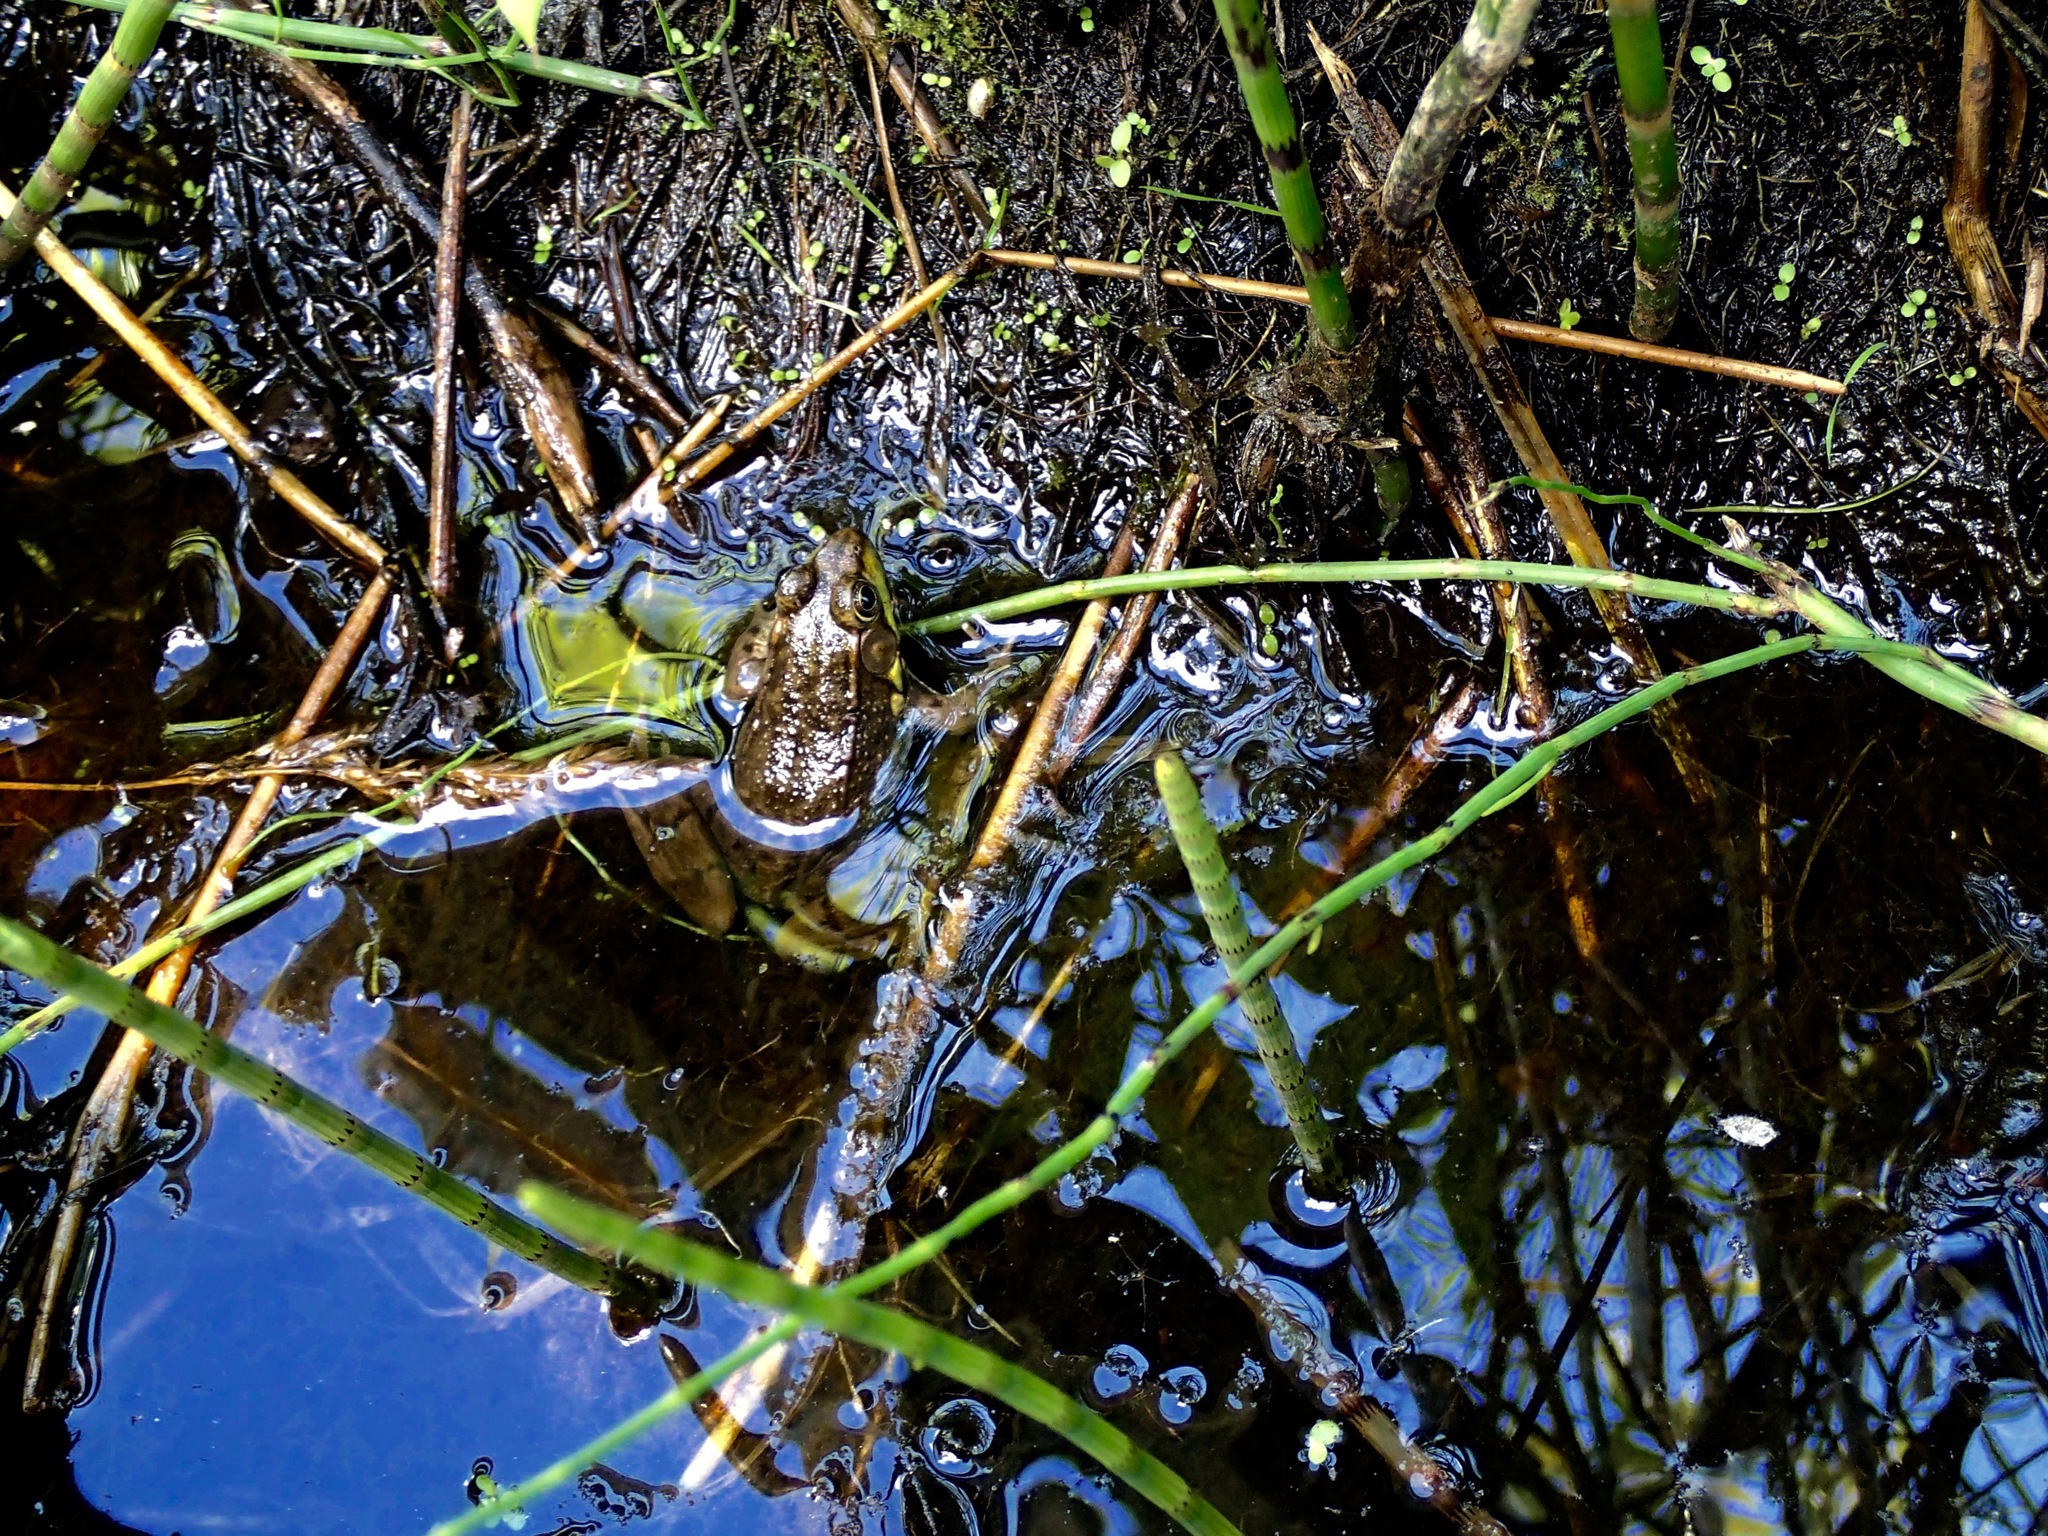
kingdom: Animalia
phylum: Chordata
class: Amphibia
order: Anura
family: Ranidae
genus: Lithobates
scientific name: Lithobates clamitans
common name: Green frog
